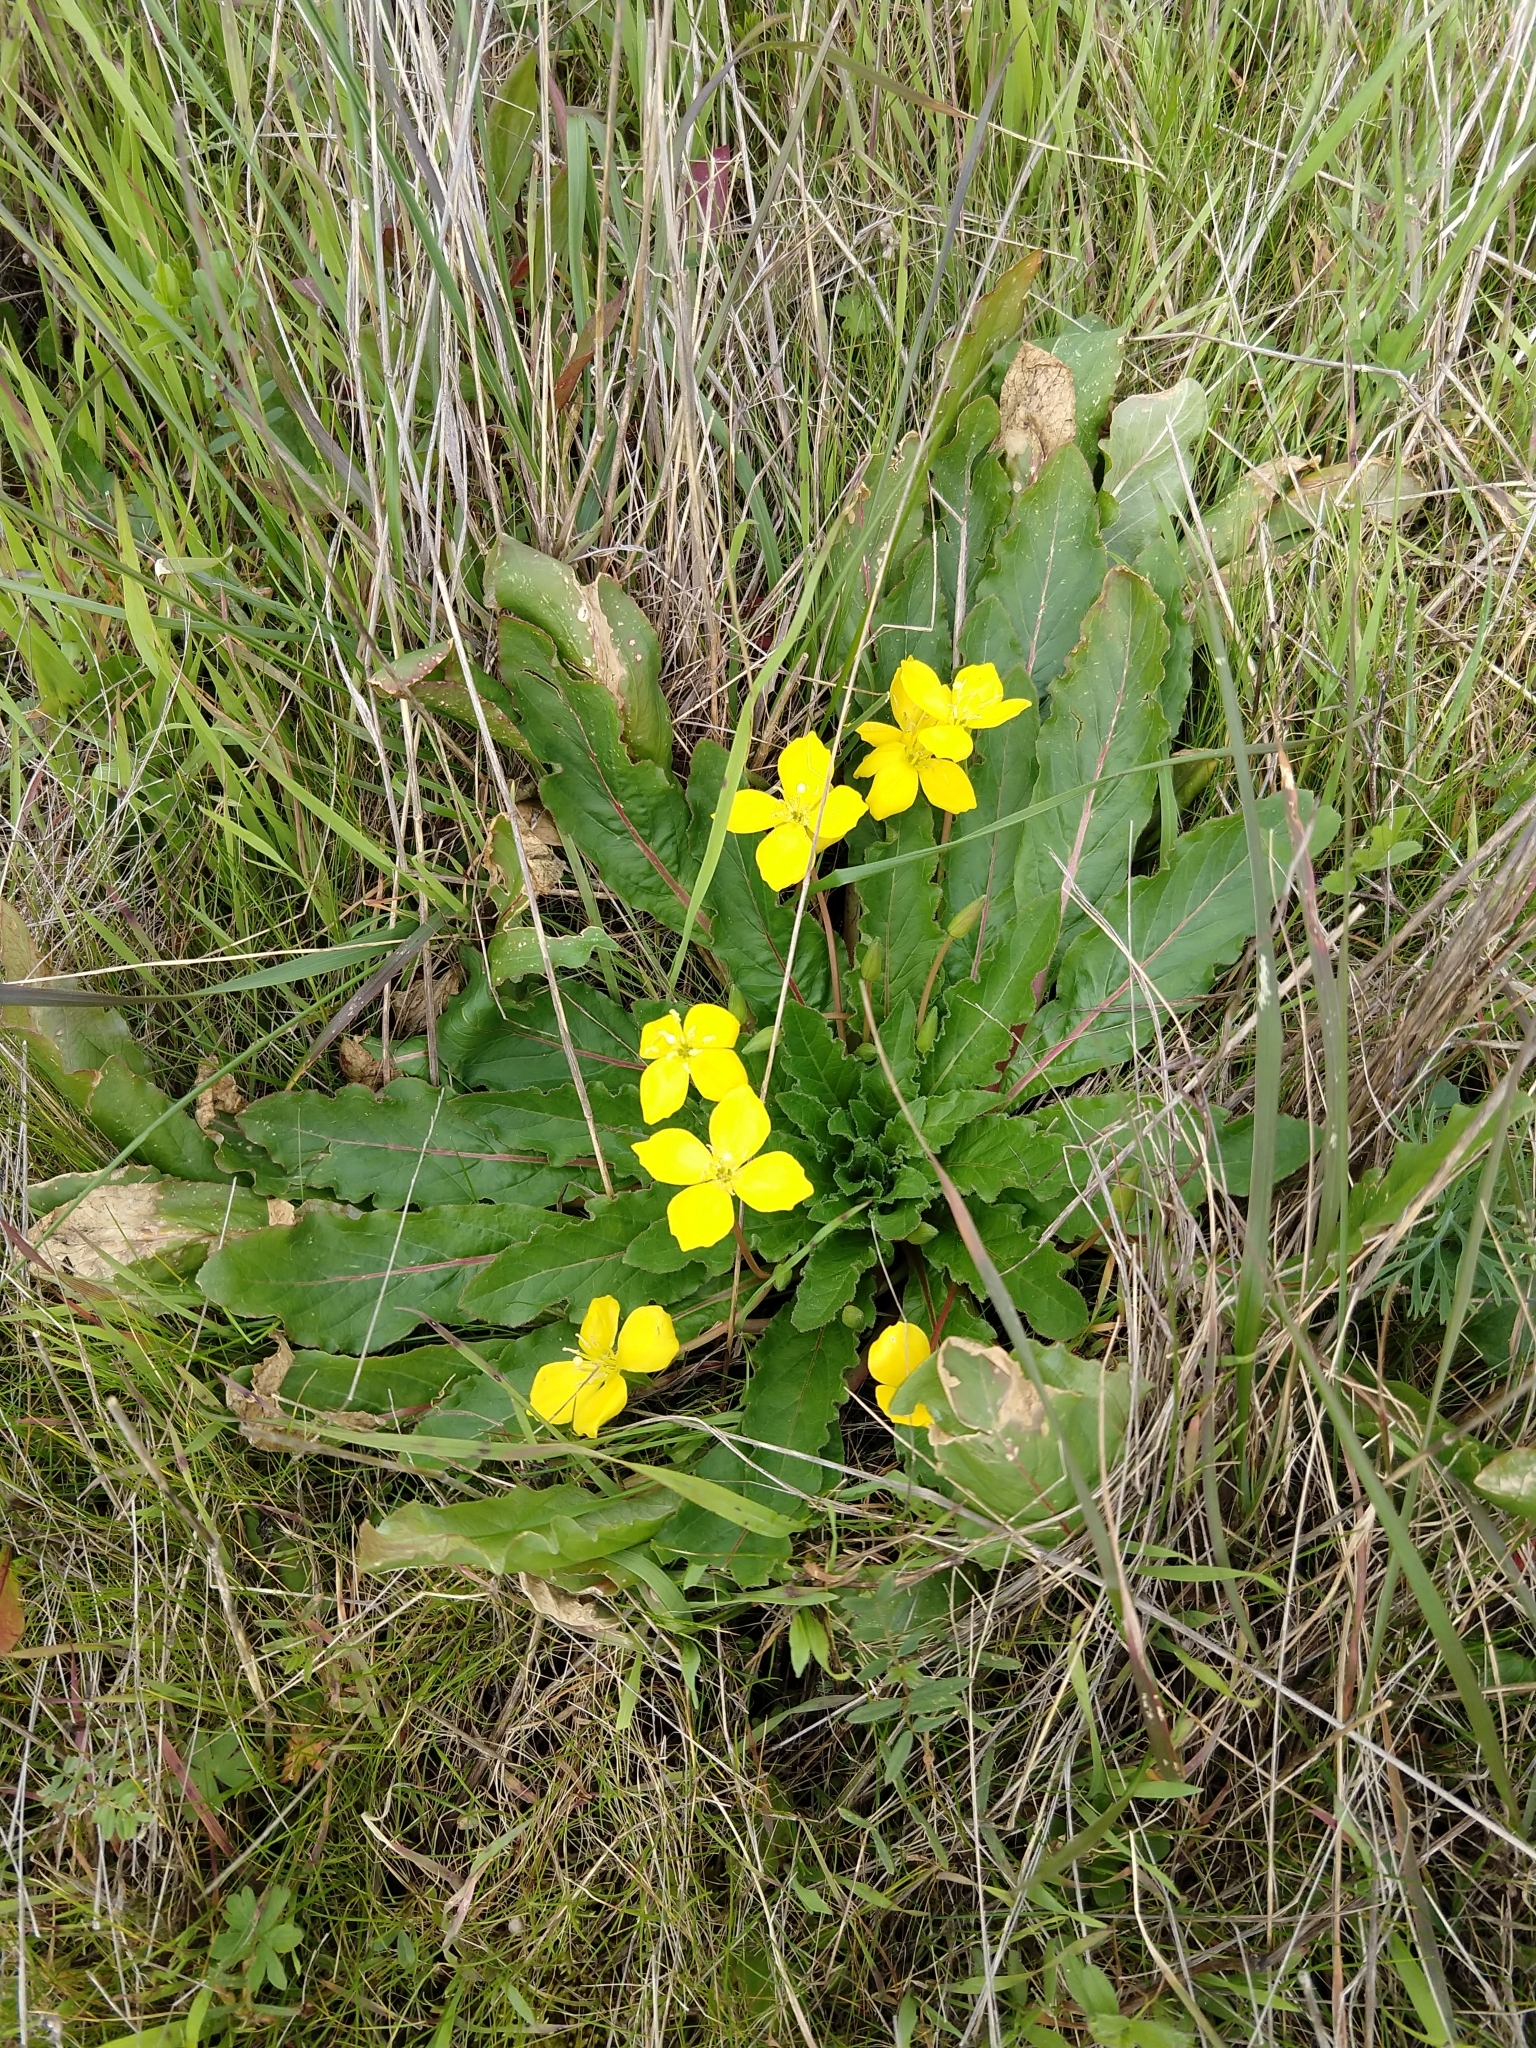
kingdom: Plantae
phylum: Tracheophyta
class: Magnoliopsida
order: Myrtales
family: Onagraceae
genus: Taraxia
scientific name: Taraxia ovata
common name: Goldeneggs
